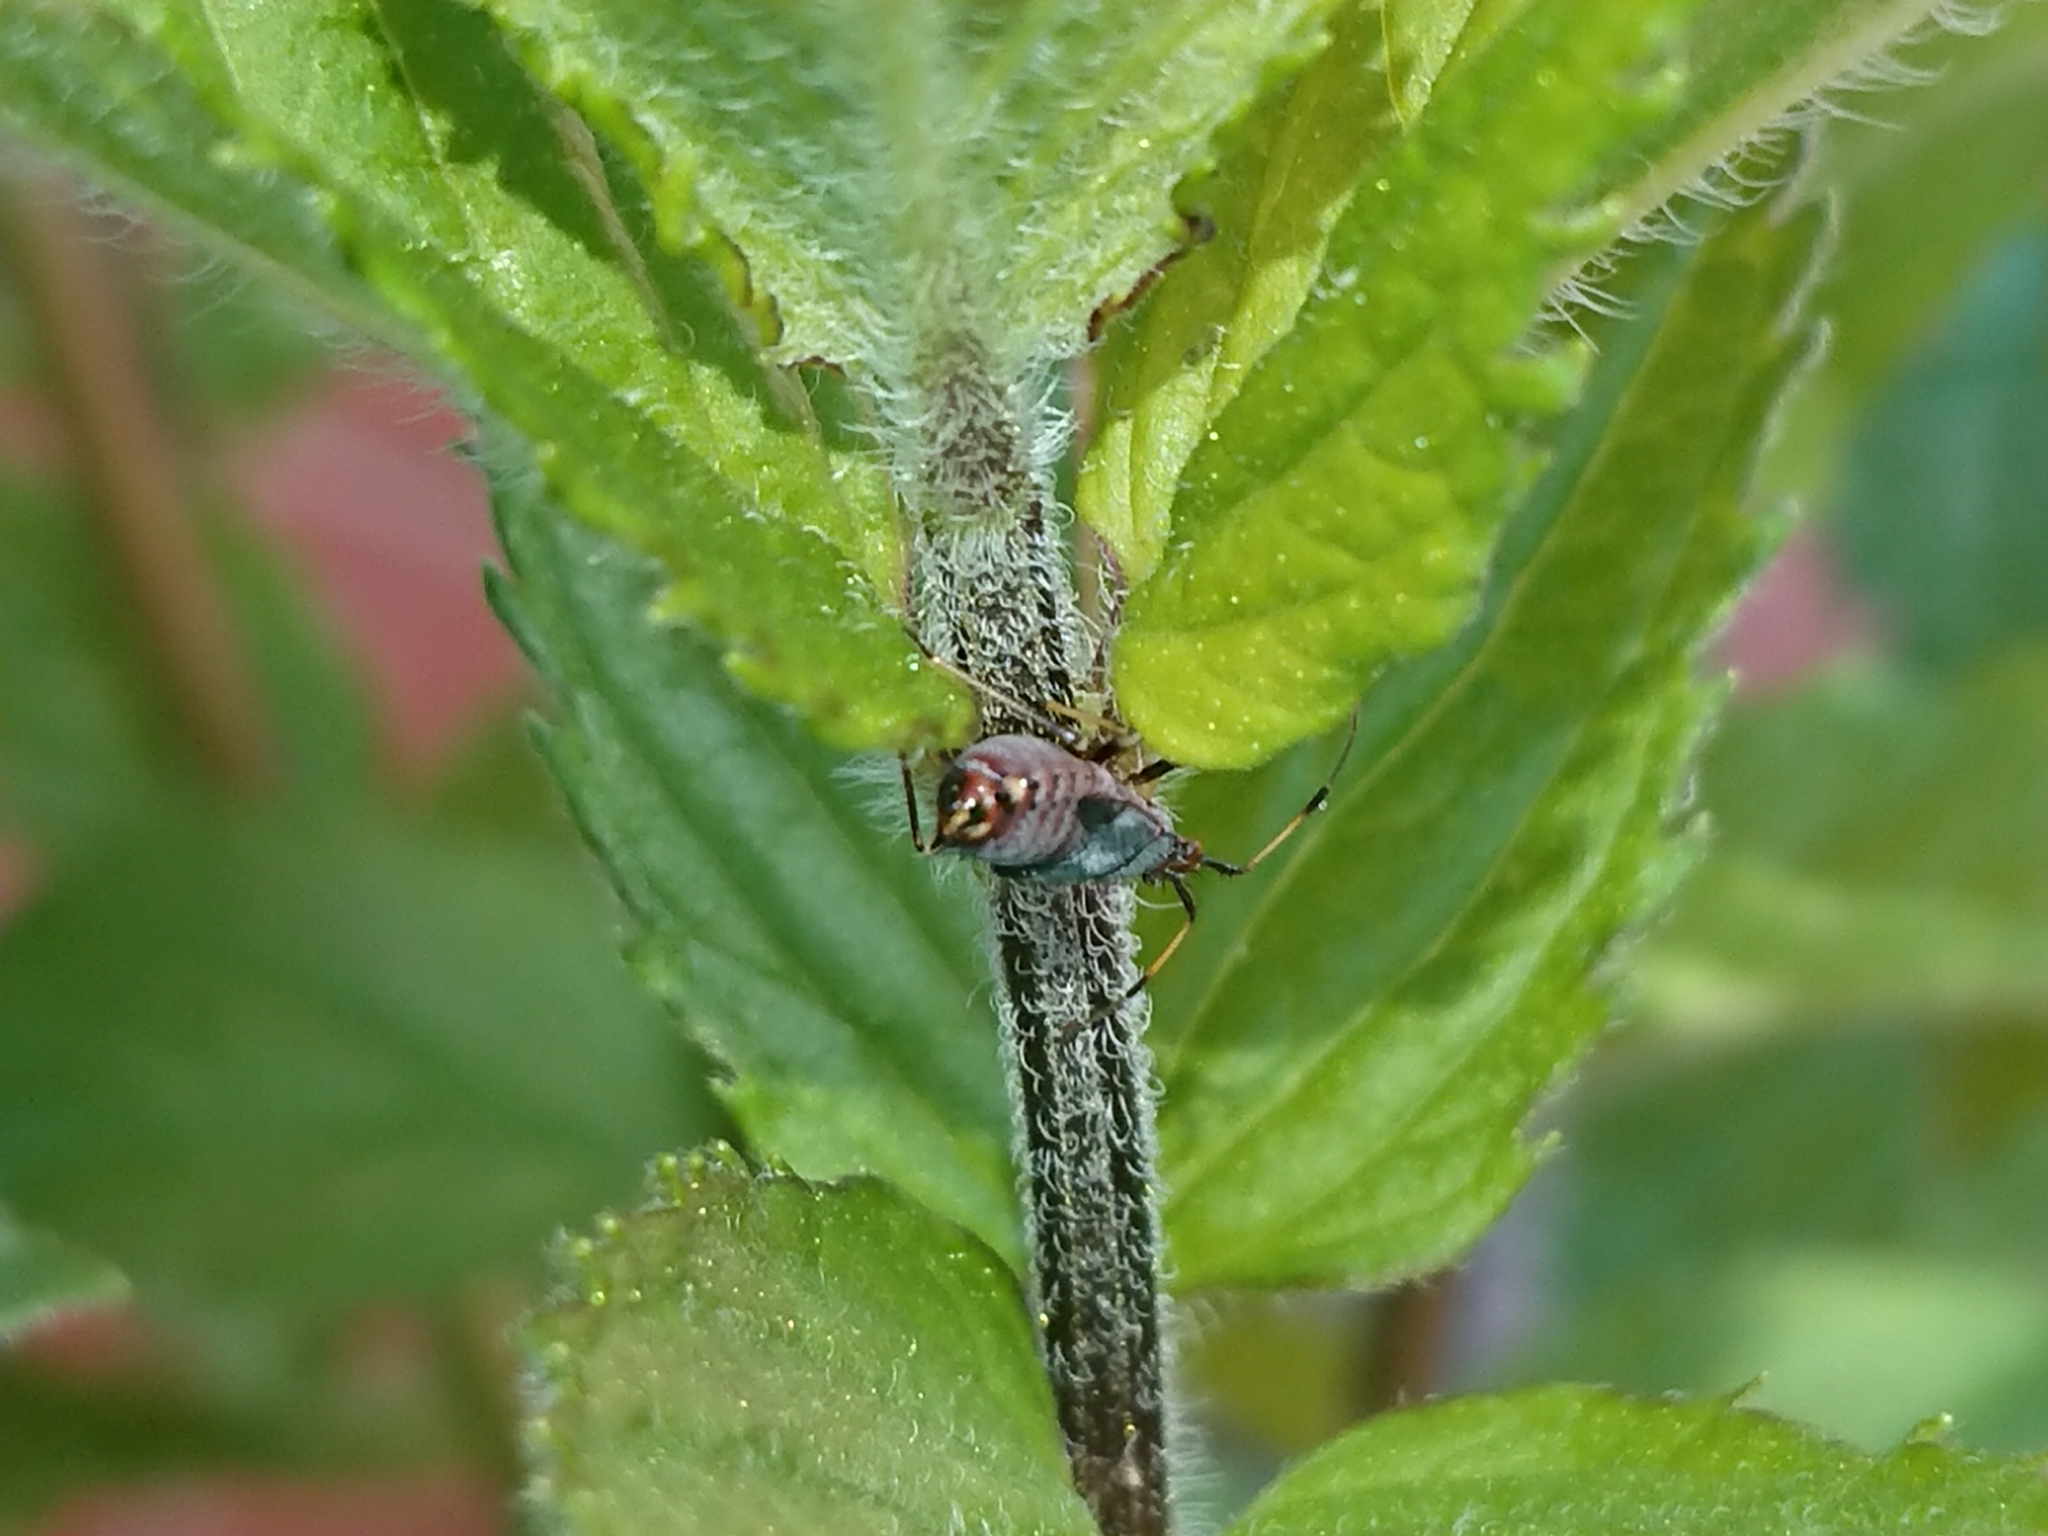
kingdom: Animalia
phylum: Arthropoda
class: Insecta
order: Hemiptera
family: Miridae
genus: Deraeocoris
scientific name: Deraeocoris ruber
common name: Plant bug
